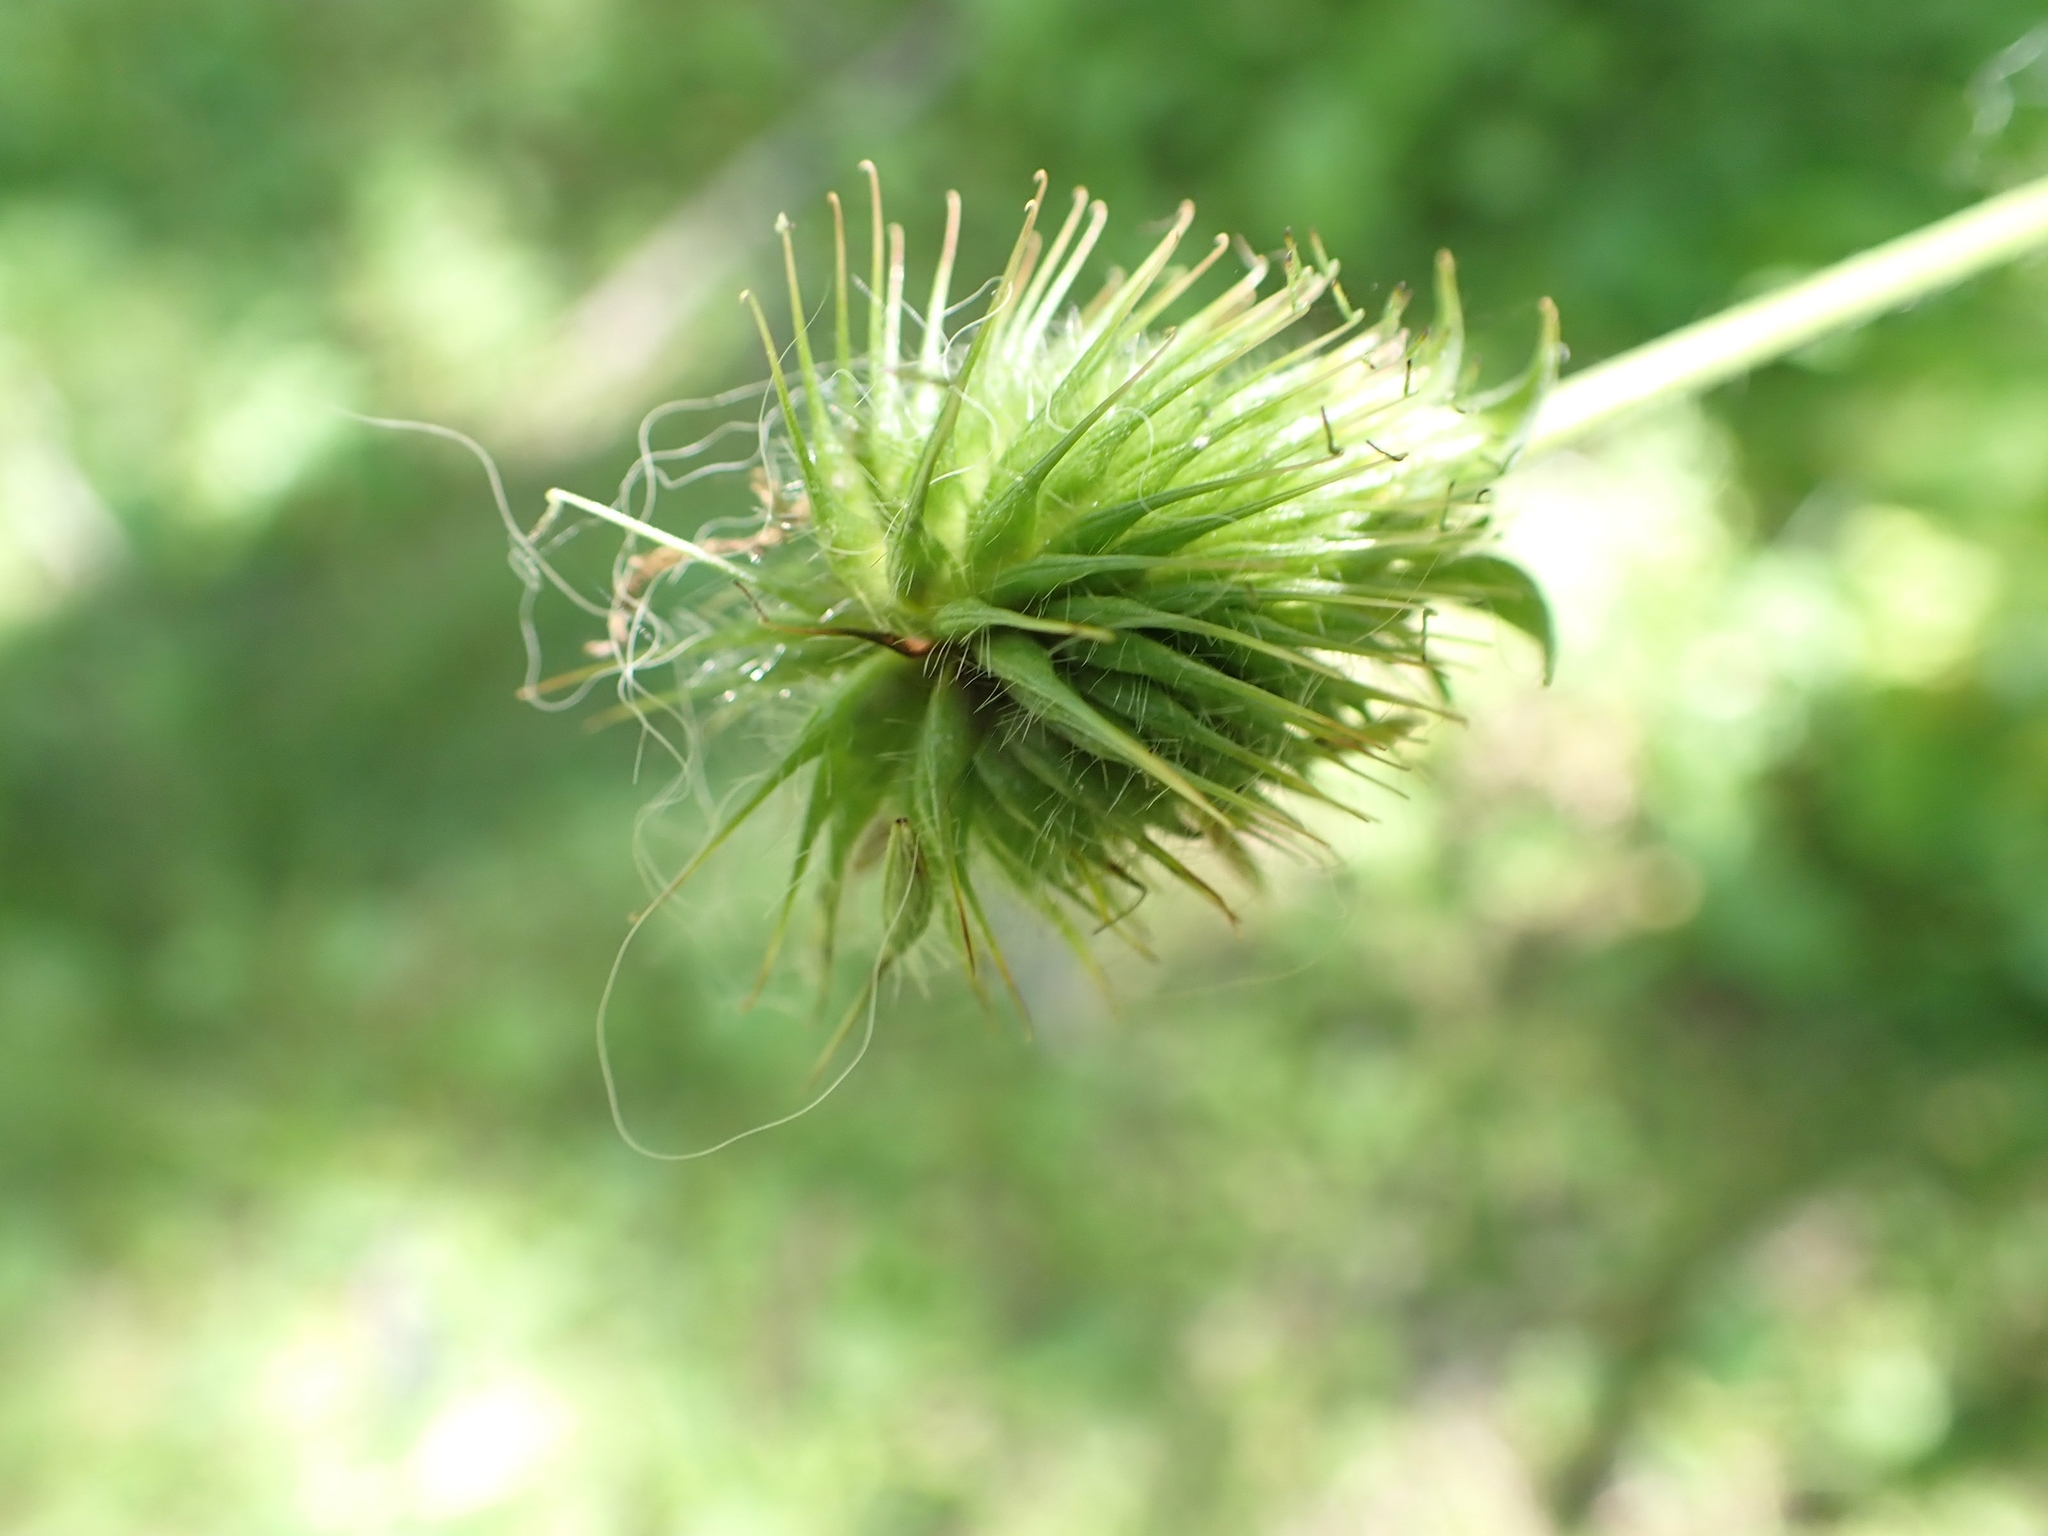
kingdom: Plantae
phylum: Tracheophyta
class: Magnoliopsida
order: Rosales
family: Rosaceae
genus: Geum
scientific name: Geum aleppicum
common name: Yellow avens
